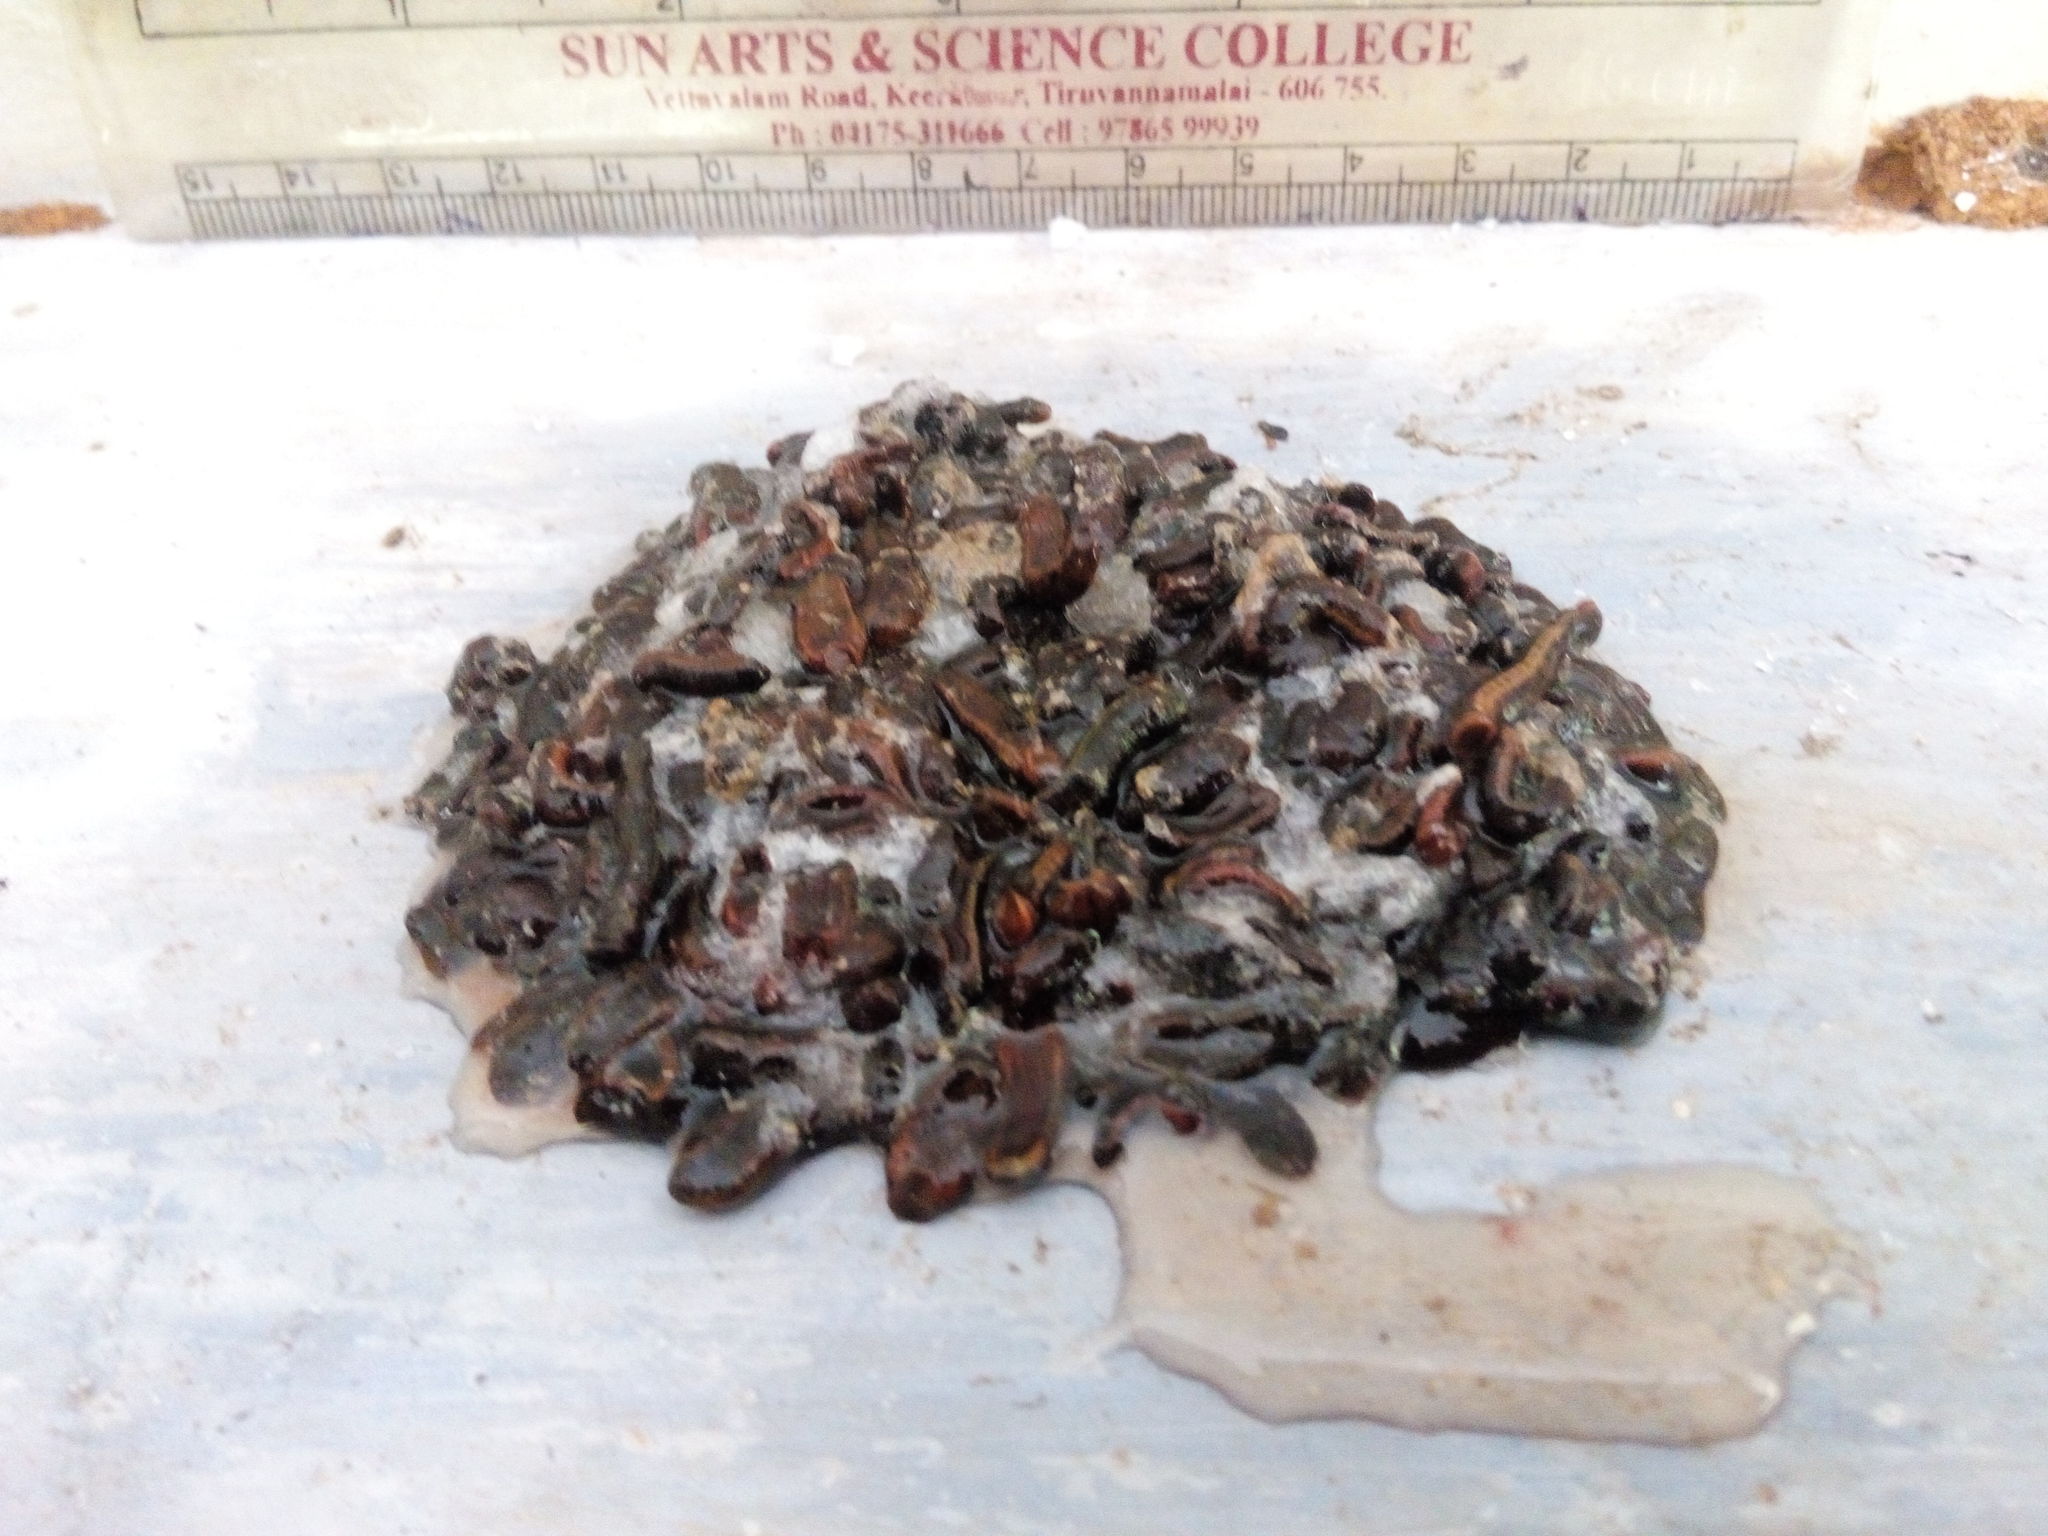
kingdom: Animalia
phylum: Annelida
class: Clitellata
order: Arhynchobdellida
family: Haemadipsidae
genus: Haemadipsa
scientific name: Haemadipsa interrupta
